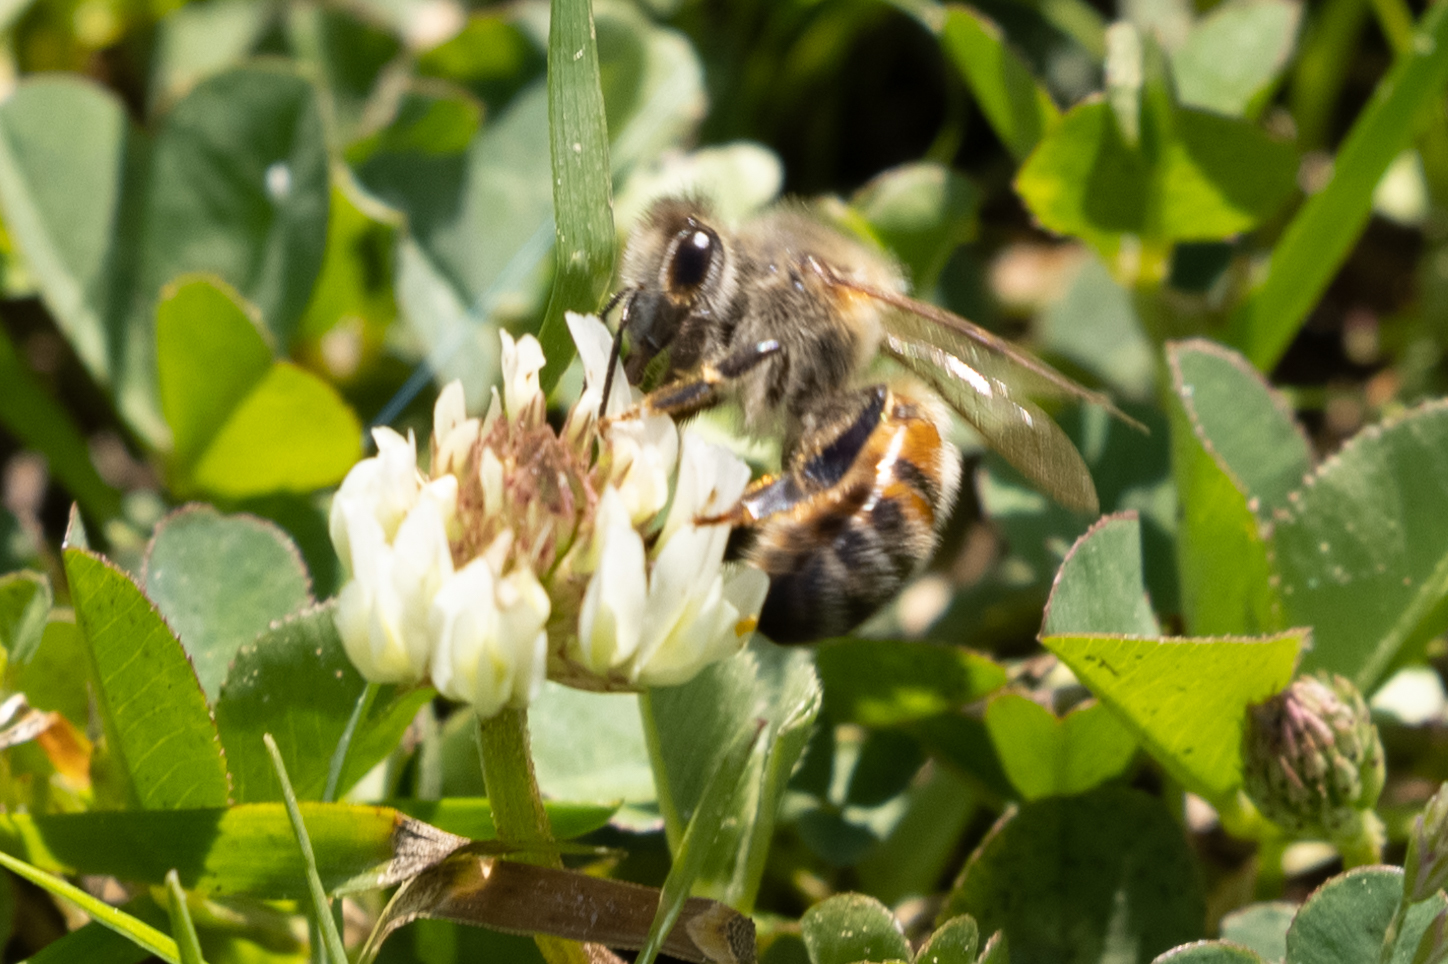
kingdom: Animalia
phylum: Arthropoda
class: Insecta
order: Hymenoptera
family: Apidae
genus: Apis
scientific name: Apis mellifera
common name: Honey bee
